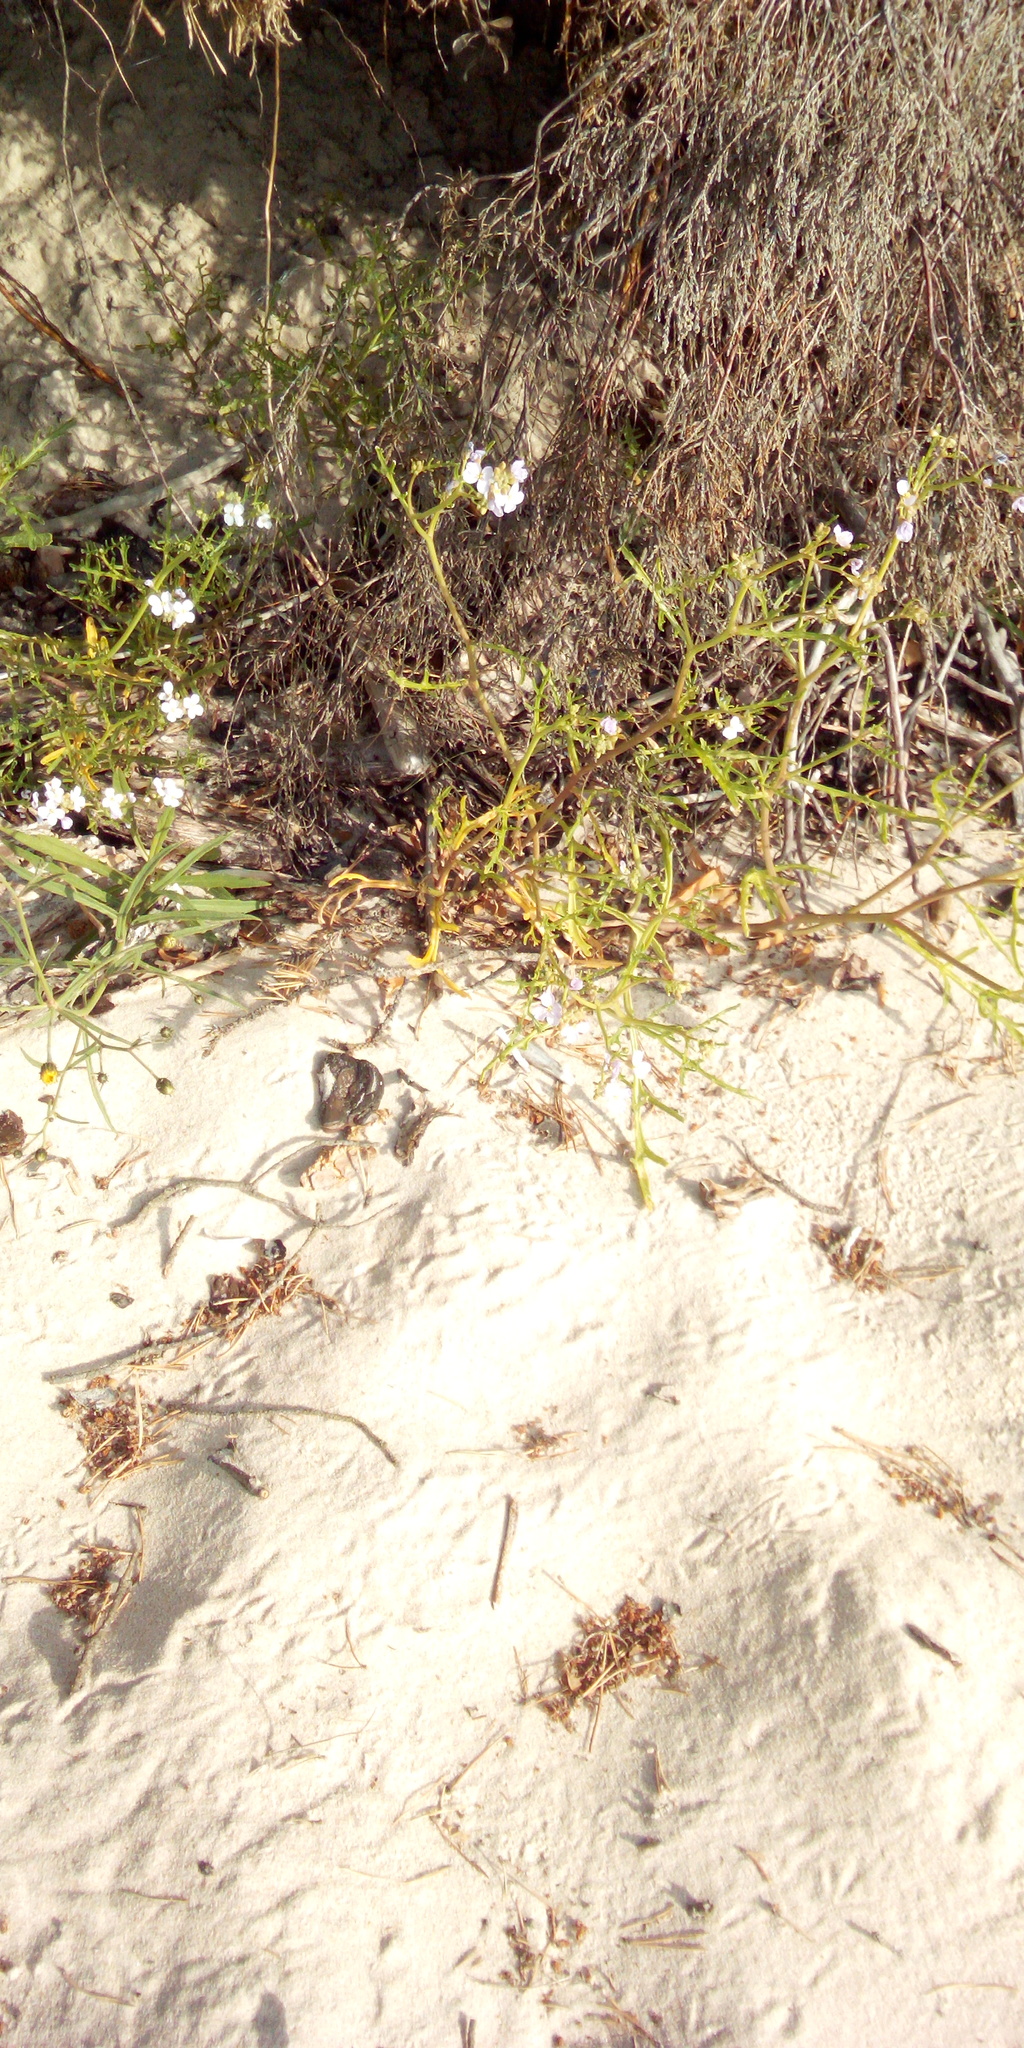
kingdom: Plantae
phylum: Tracheophyta
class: Magnoliopsida
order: Brassicales
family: Brassicaceae
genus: Cakile
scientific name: Cakile maritima
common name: Sea rocket
